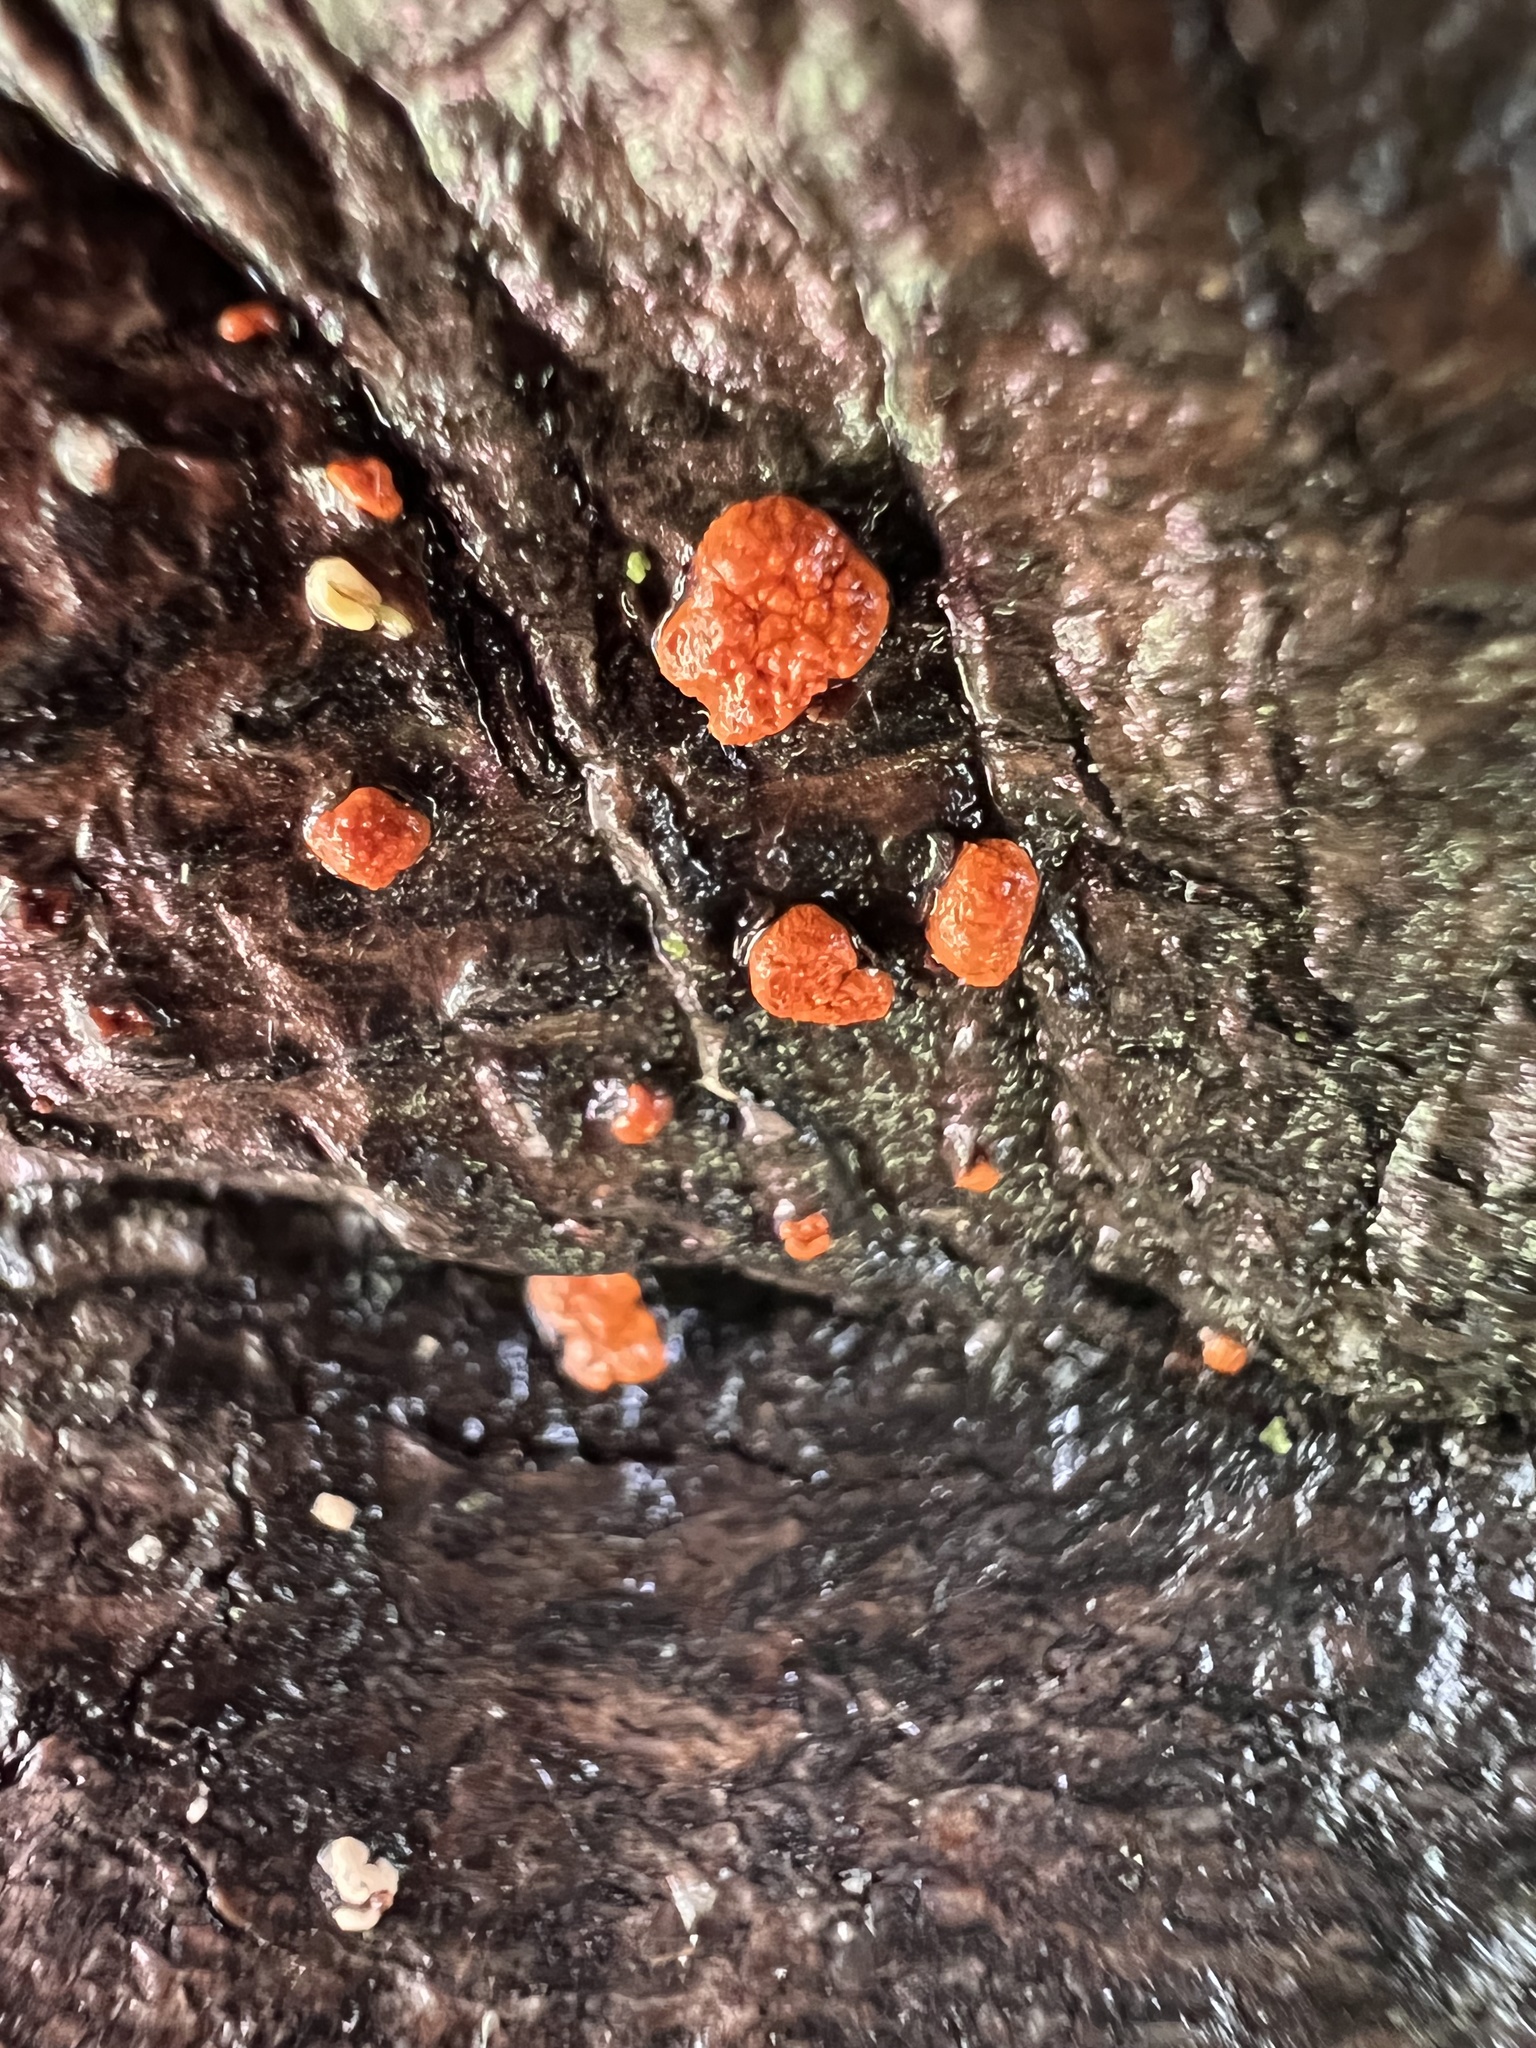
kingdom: Fungi
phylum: Ascomycota
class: Sordariomycetes
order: Diaporthales
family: Cryphonectriaceae
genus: Amphilogia
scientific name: Amphilogia gyrosa
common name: Orange hobnail canker
